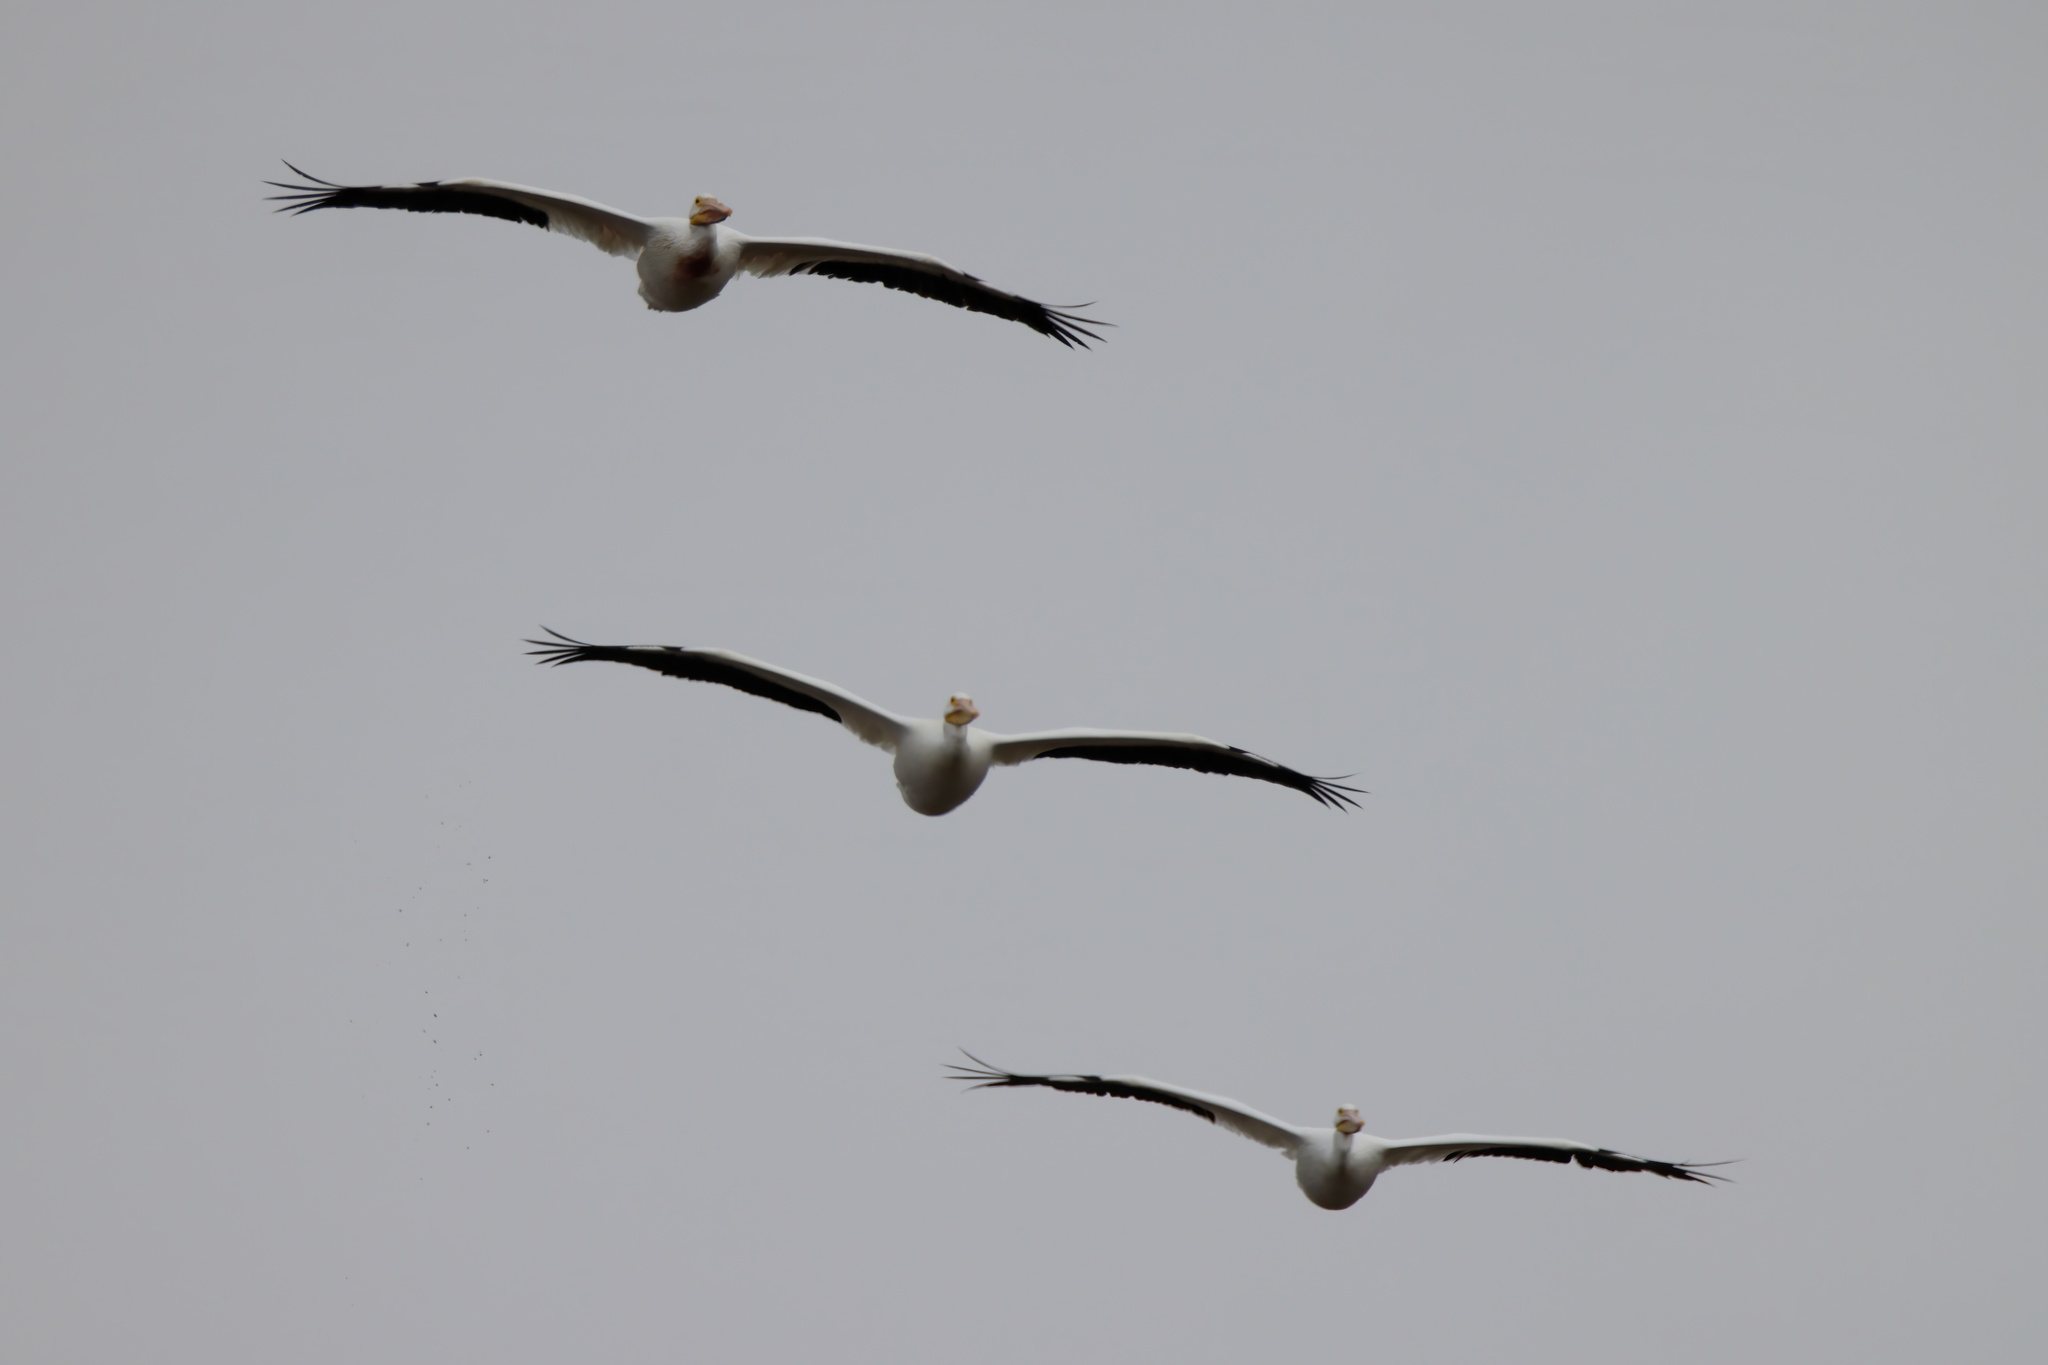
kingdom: Animalia
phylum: Chordata
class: Aves
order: Pelecaniformes
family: Pelecanidae
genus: Pelecanus
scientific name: Pelecanus erythrorhynchos
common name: American white pelican
